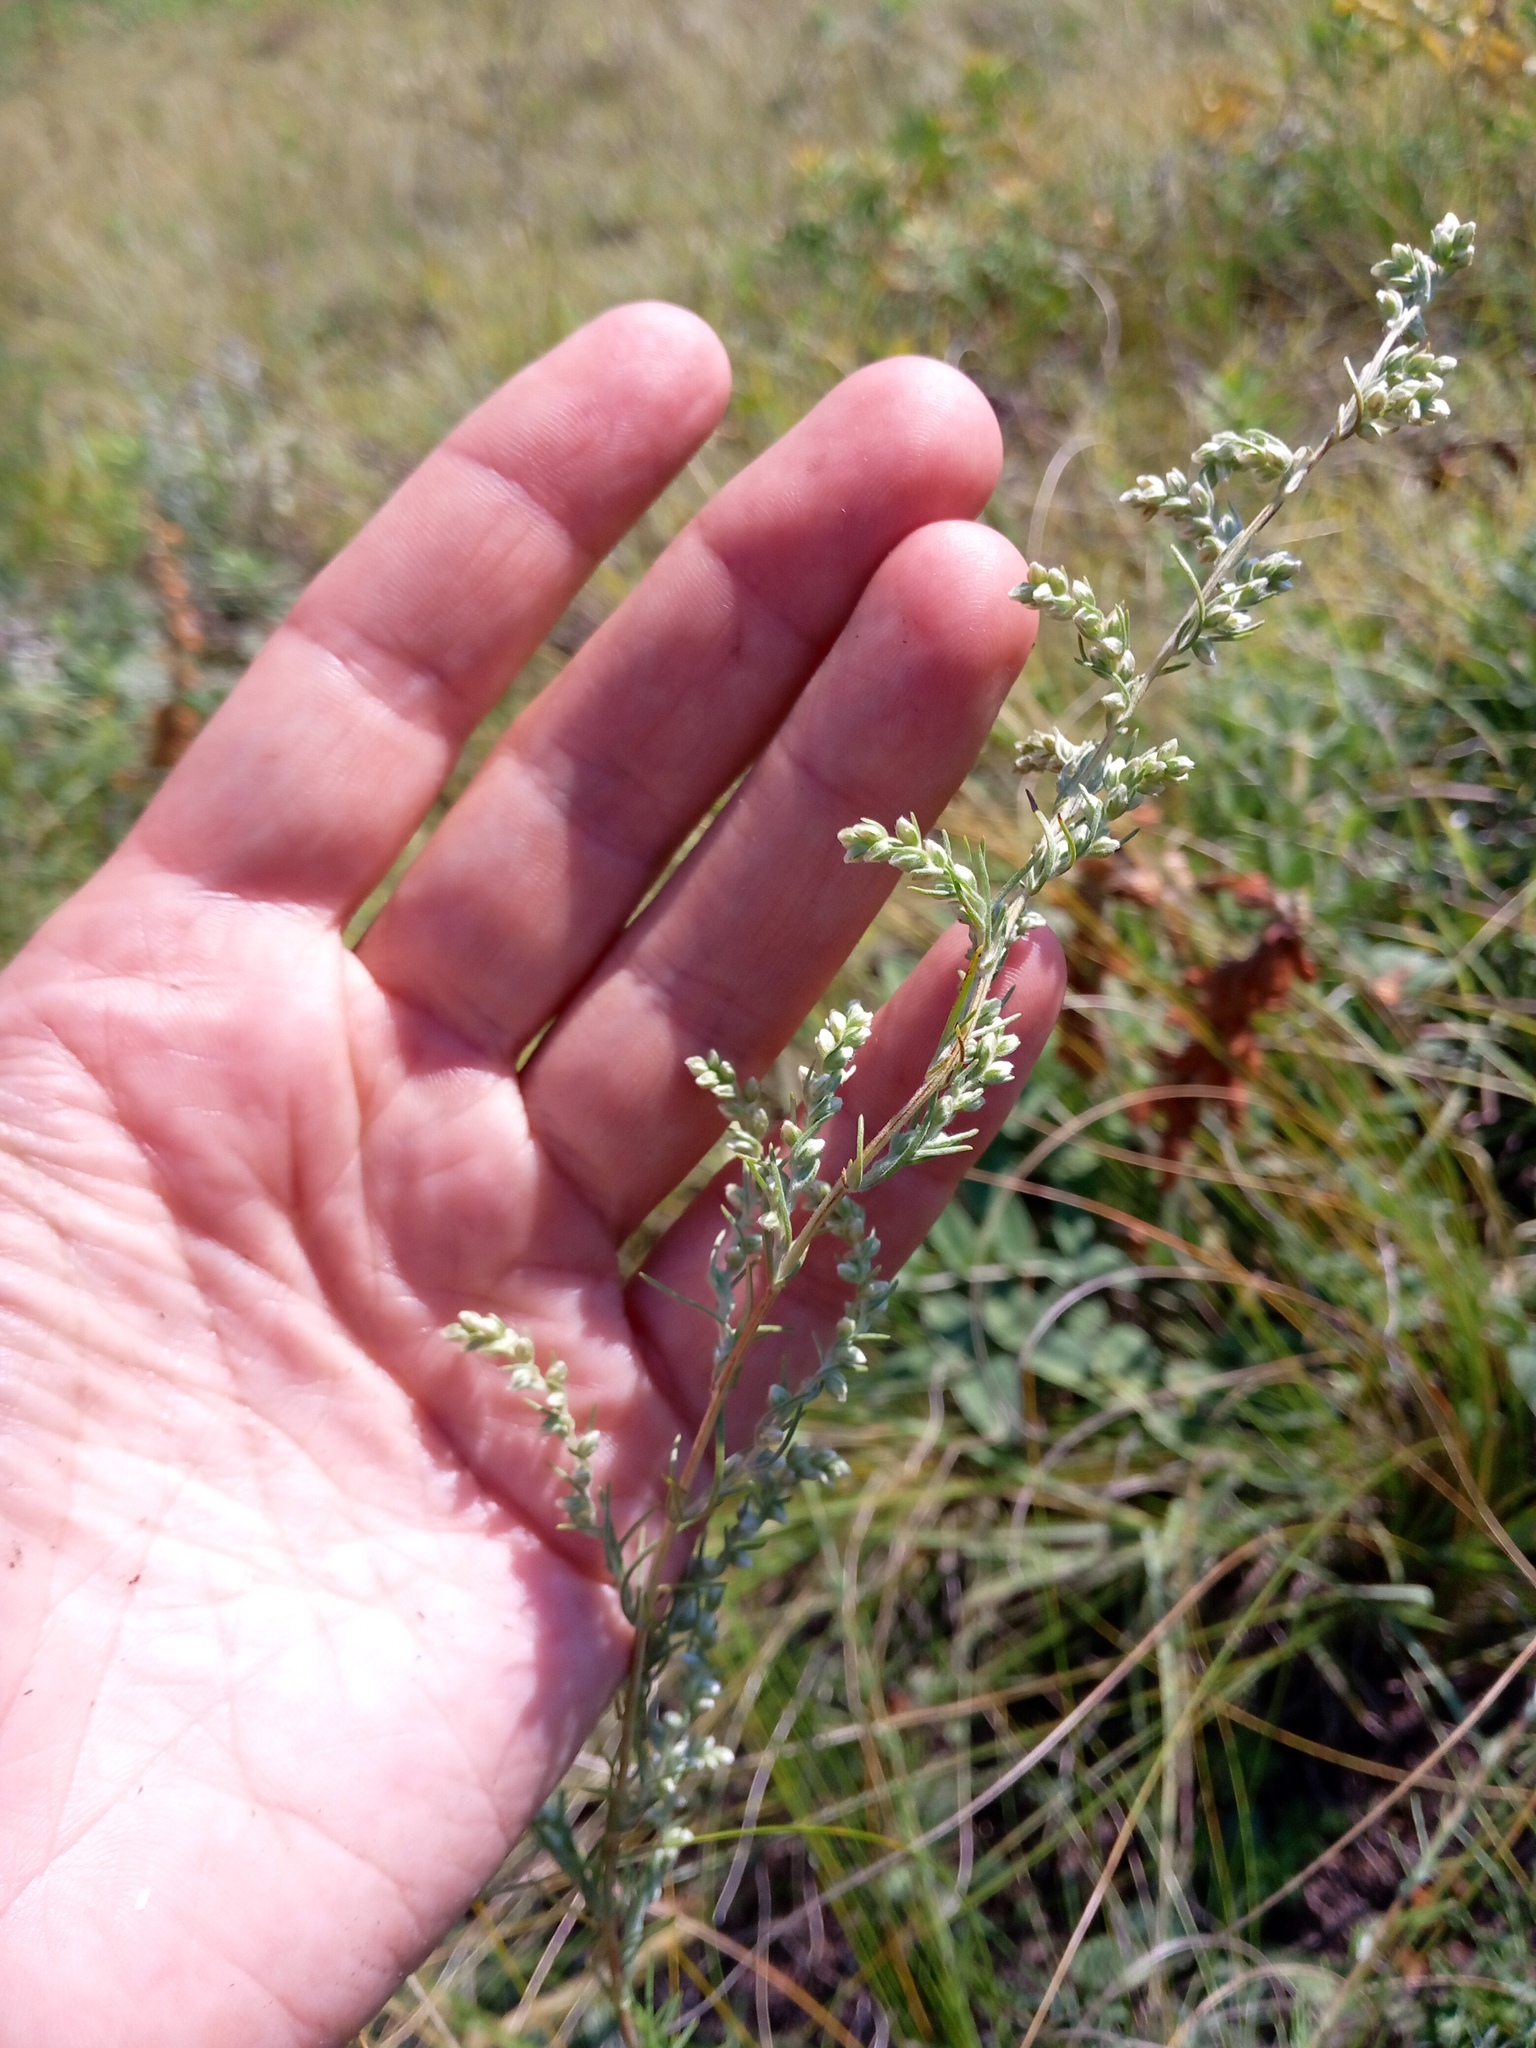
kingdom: Plantae
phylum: Tracheophyta
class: Magnoliopsida
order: Asterales
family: Asteraceae
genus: Artemisia
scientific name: Artemisia marschalliana
